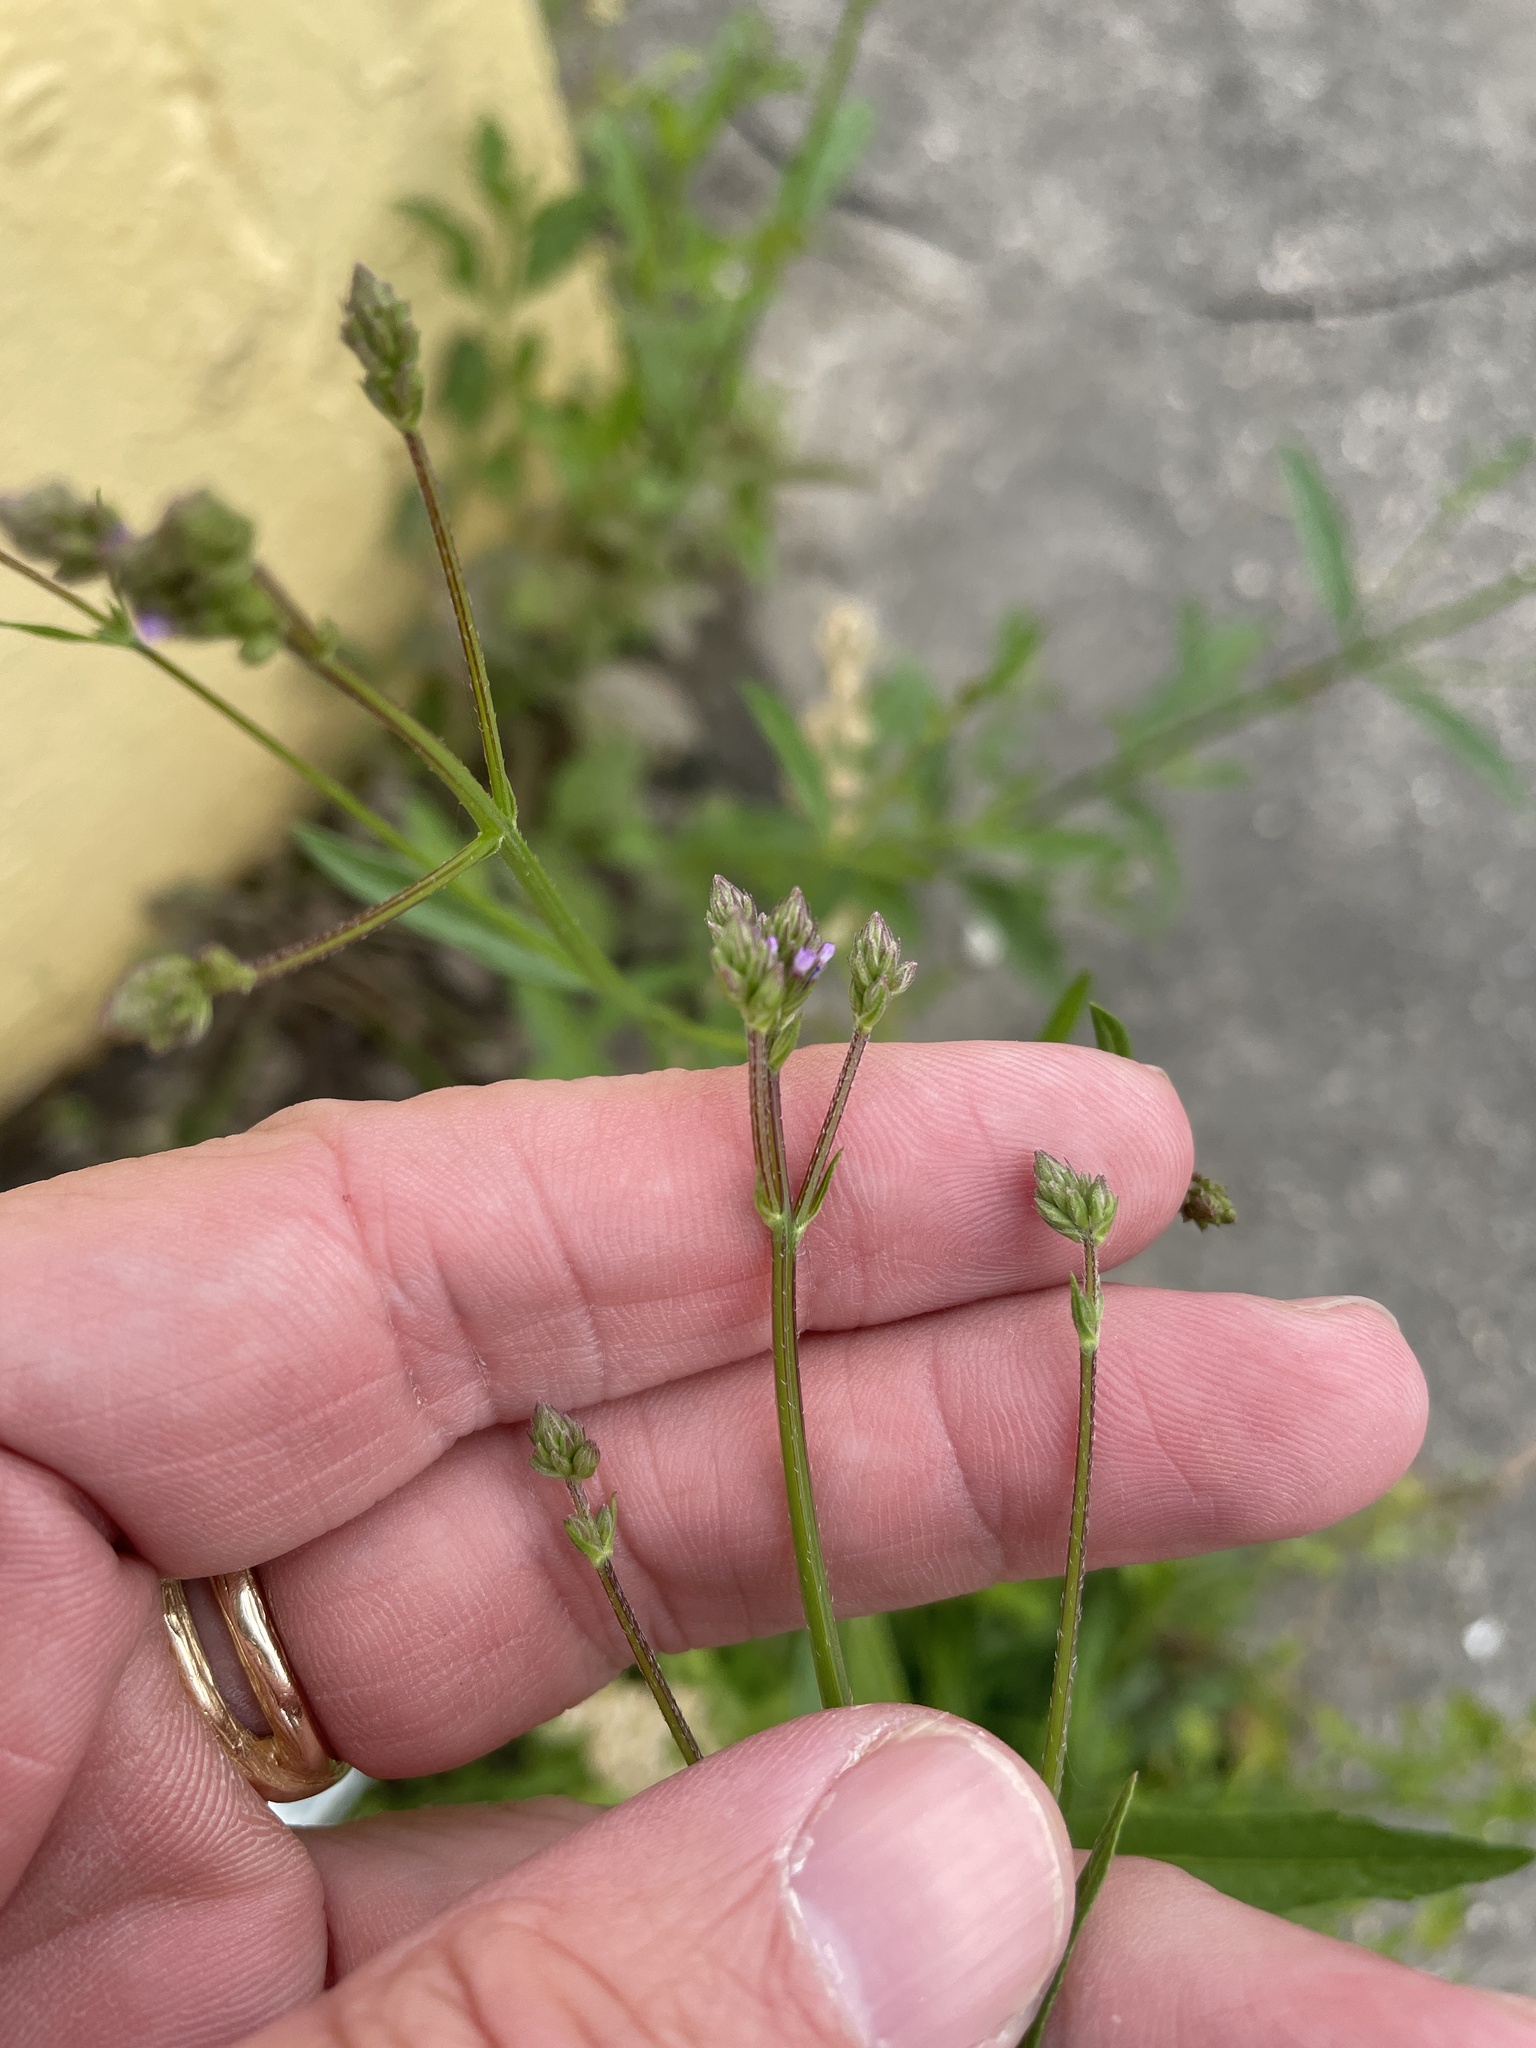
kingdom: Plantae
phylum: Tracheophyta
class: Magnoliopsida
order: Lamiales
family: Verbenaceae
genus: Verbena
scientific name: Verbena brasiliensis
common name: Brazilian vervain
